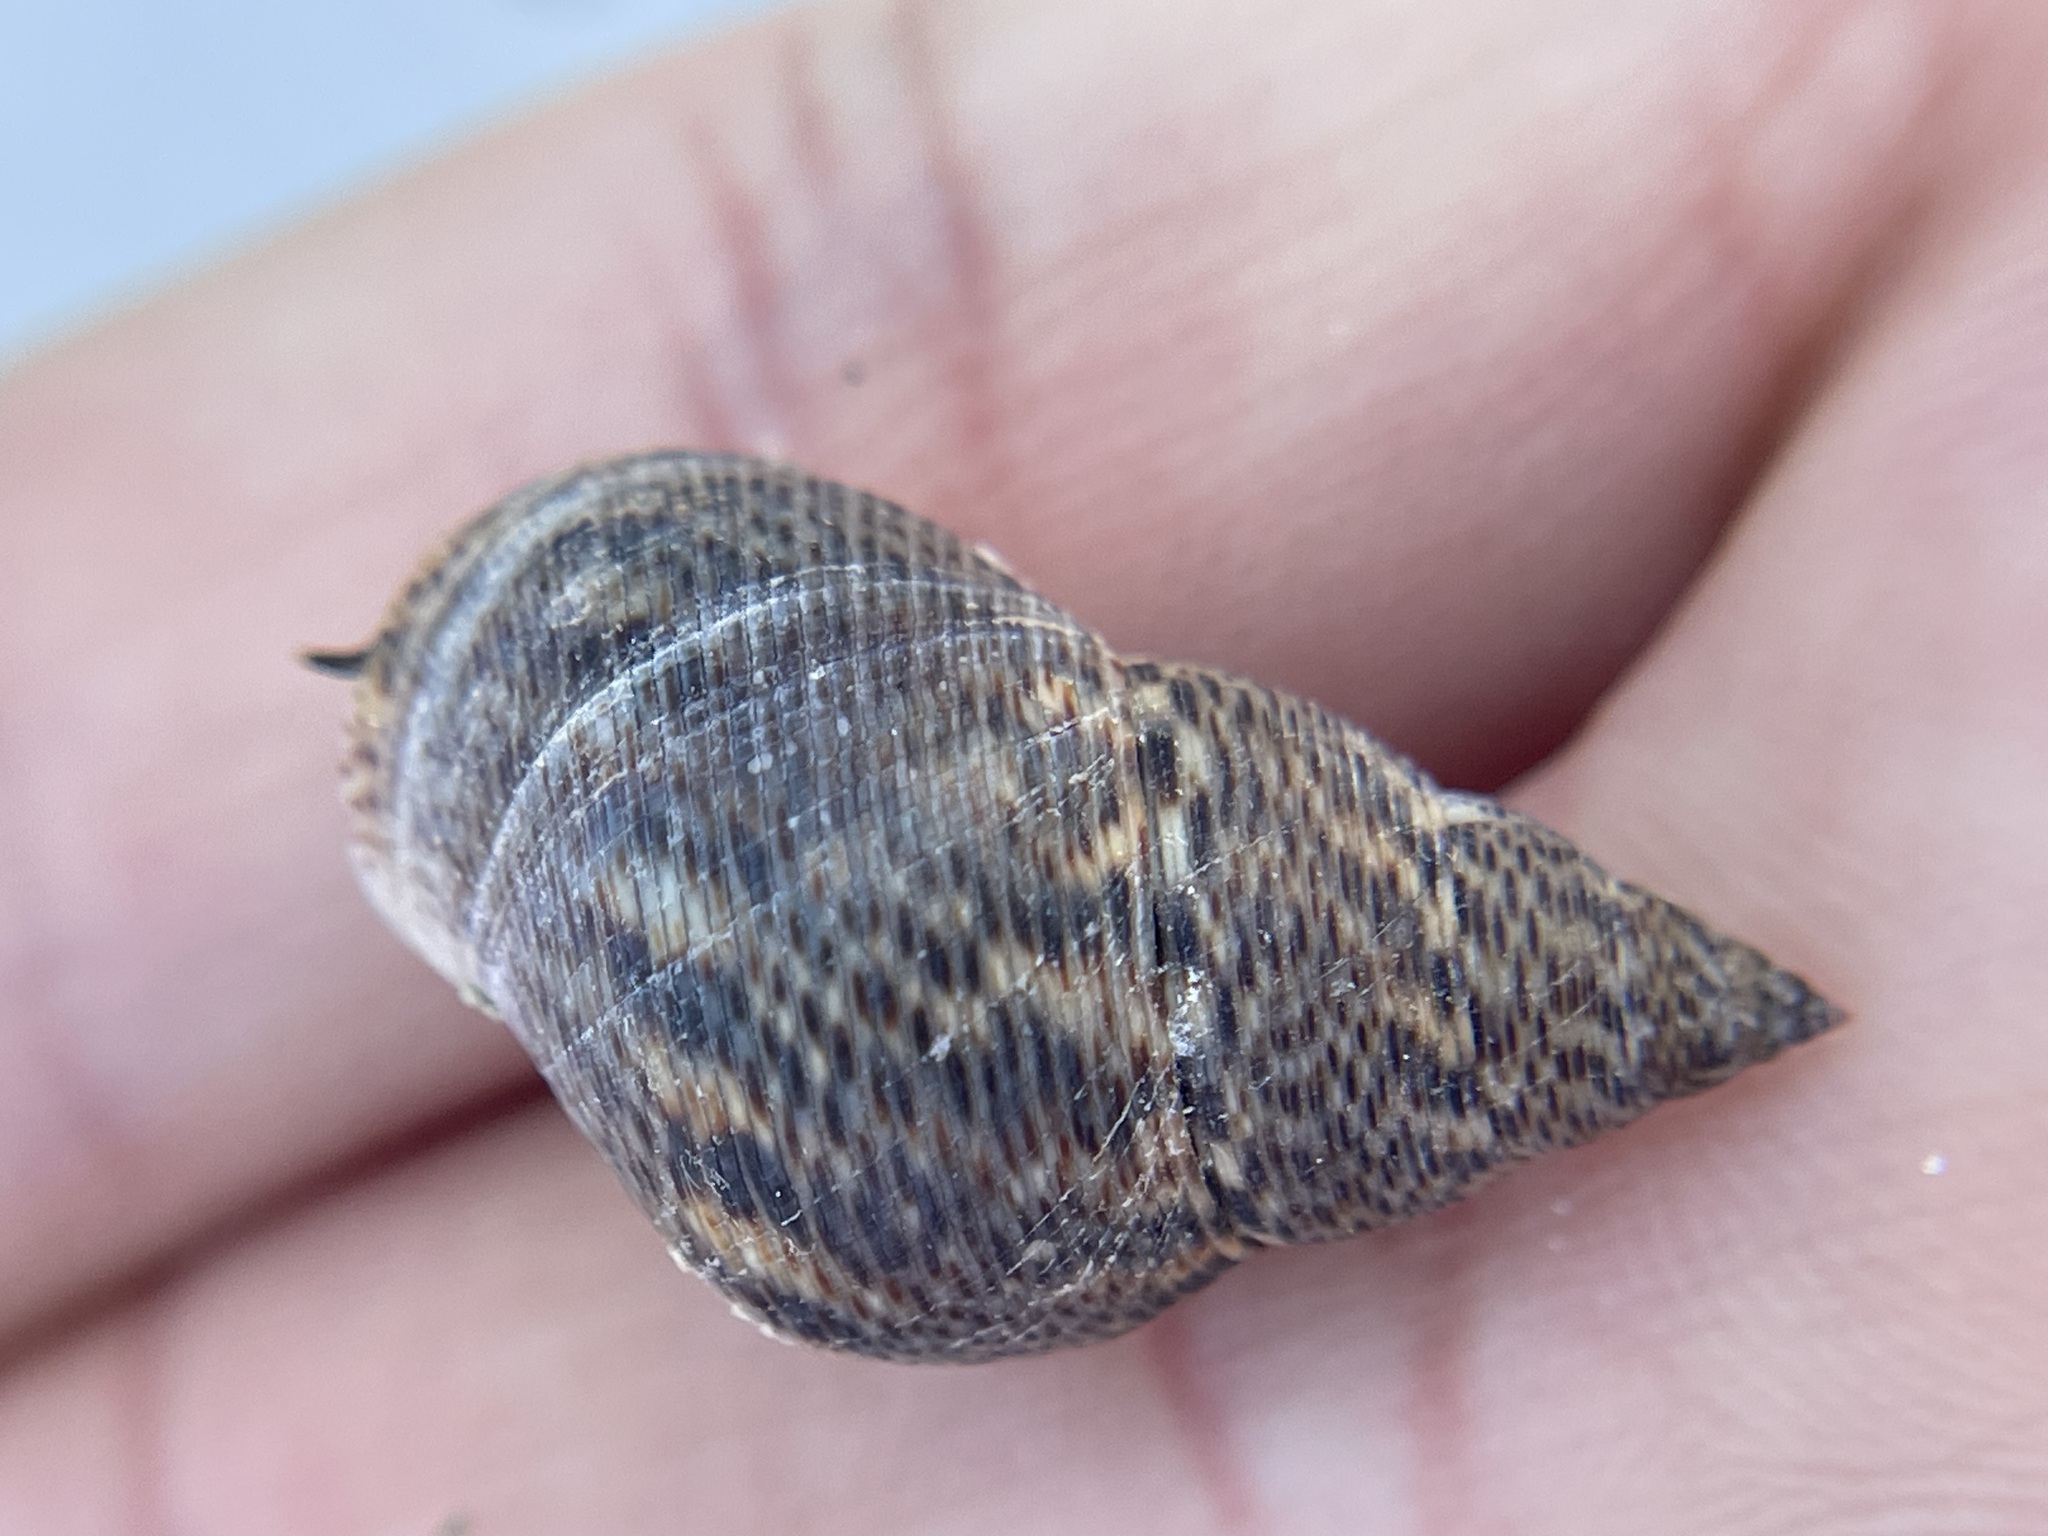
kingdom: Animalia
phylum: Mollusca
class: Gastropoda
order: Littorinimorpha
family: Littorinidae
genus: Littoraria
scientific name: Littoraria angulifera
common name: Mangrove periwinkle
